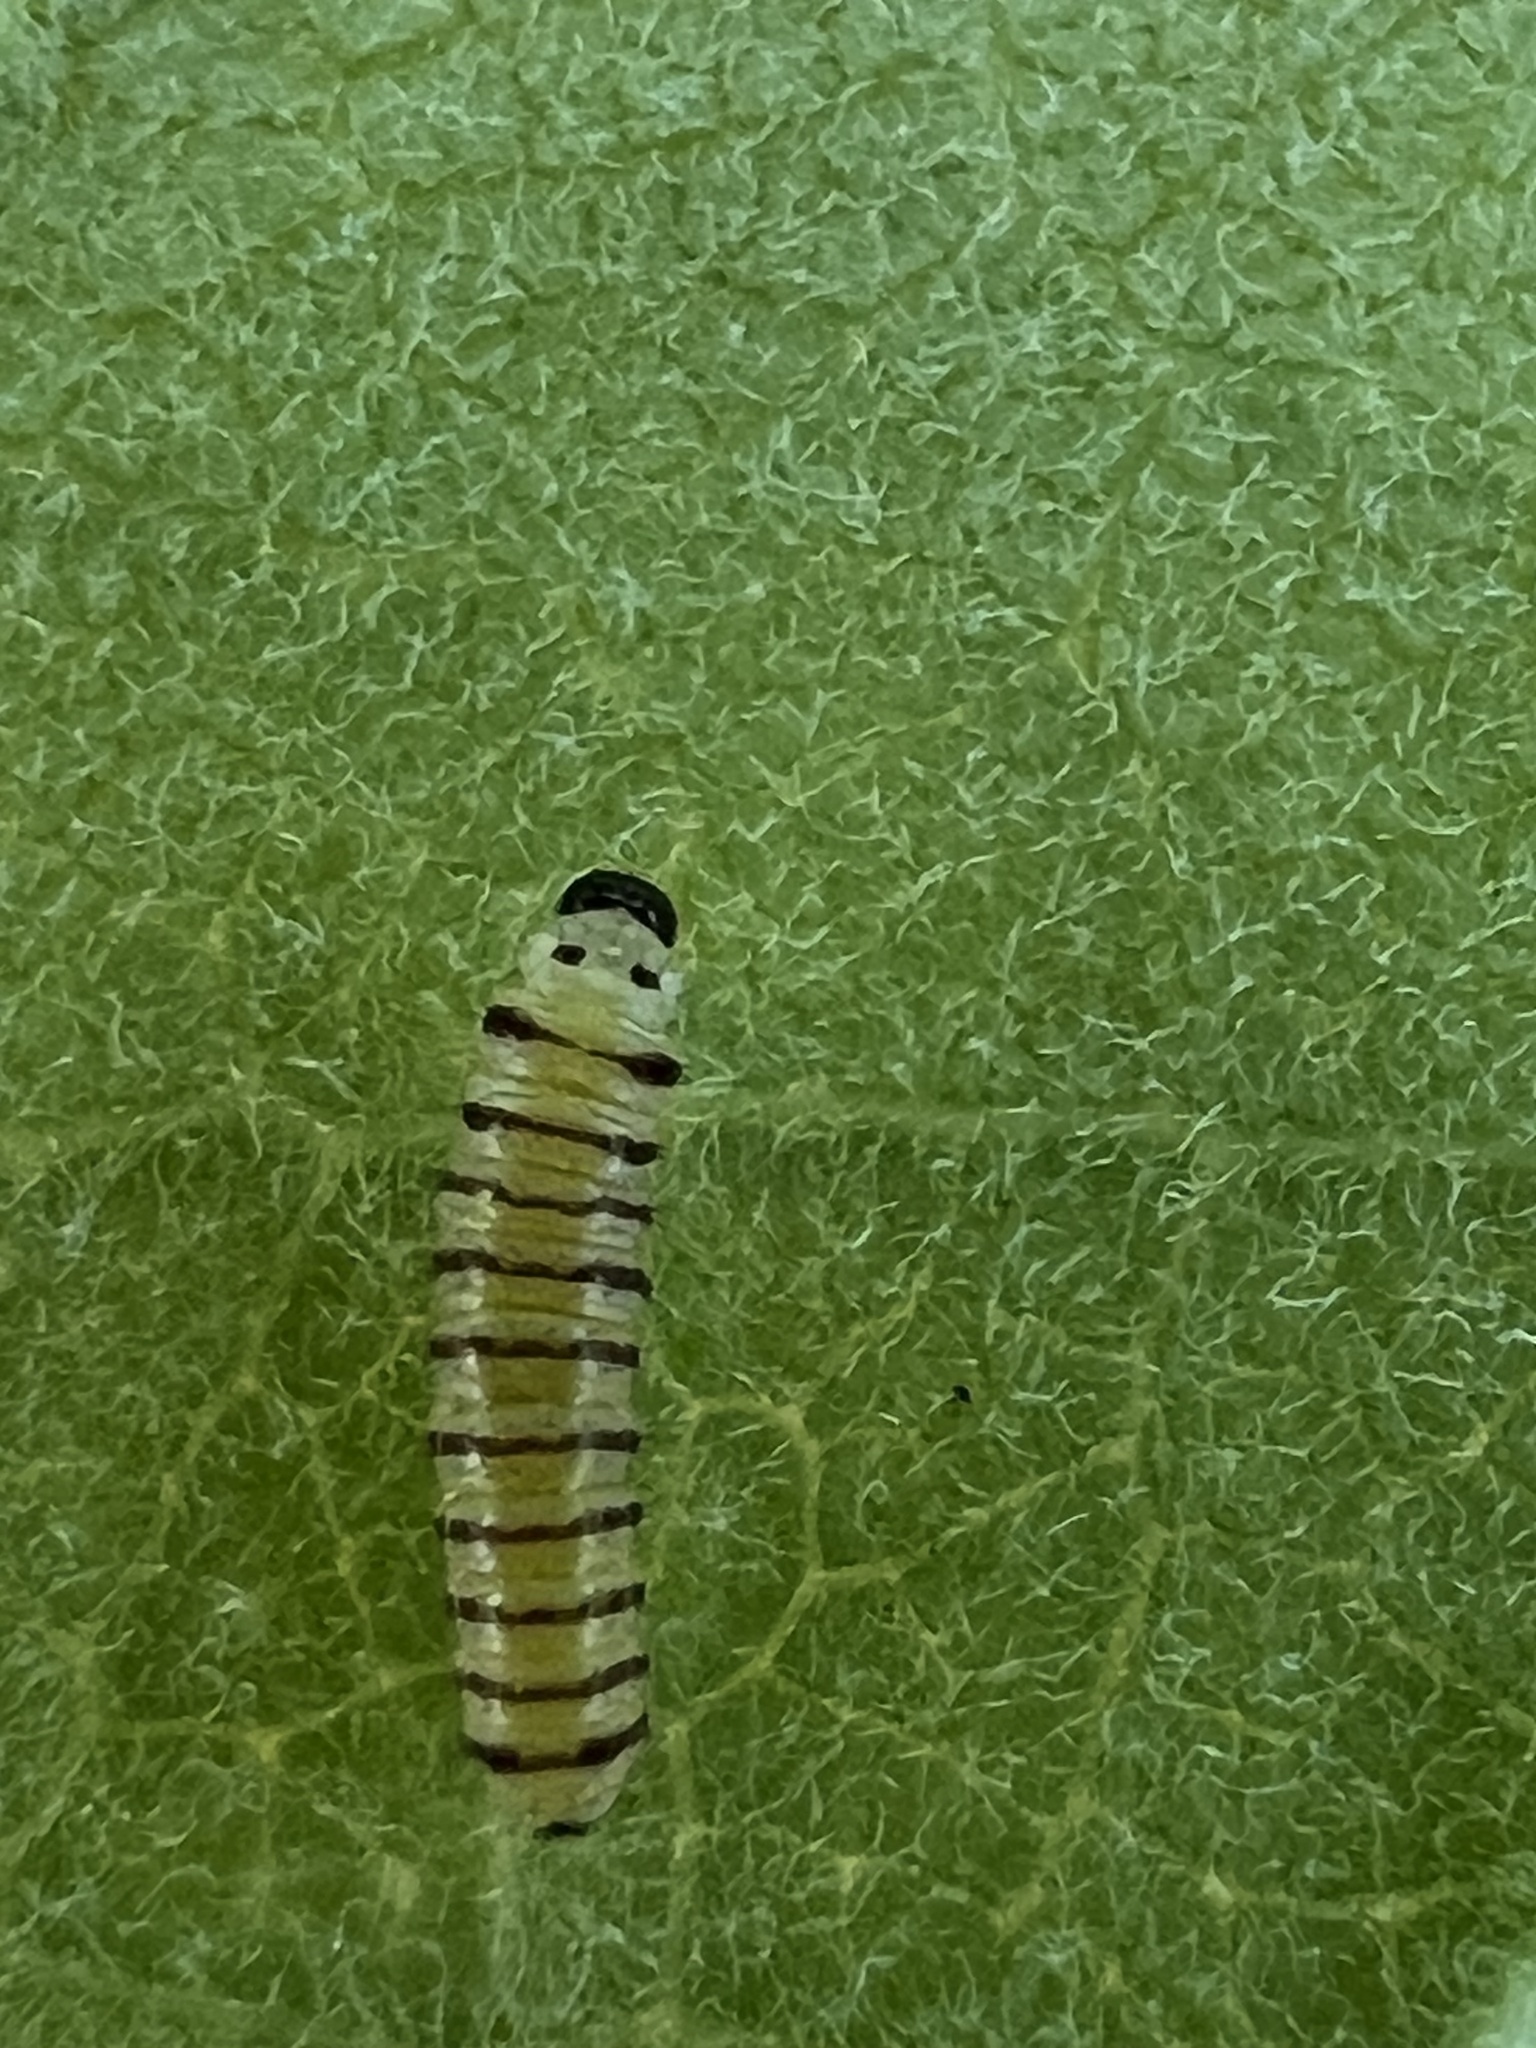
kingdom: Animalia
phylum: Arthropoda
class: Insecta
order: Lepidoptera
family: Nymphalidae
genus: Danaus
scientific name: Danaus plexippus
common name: Monarch
